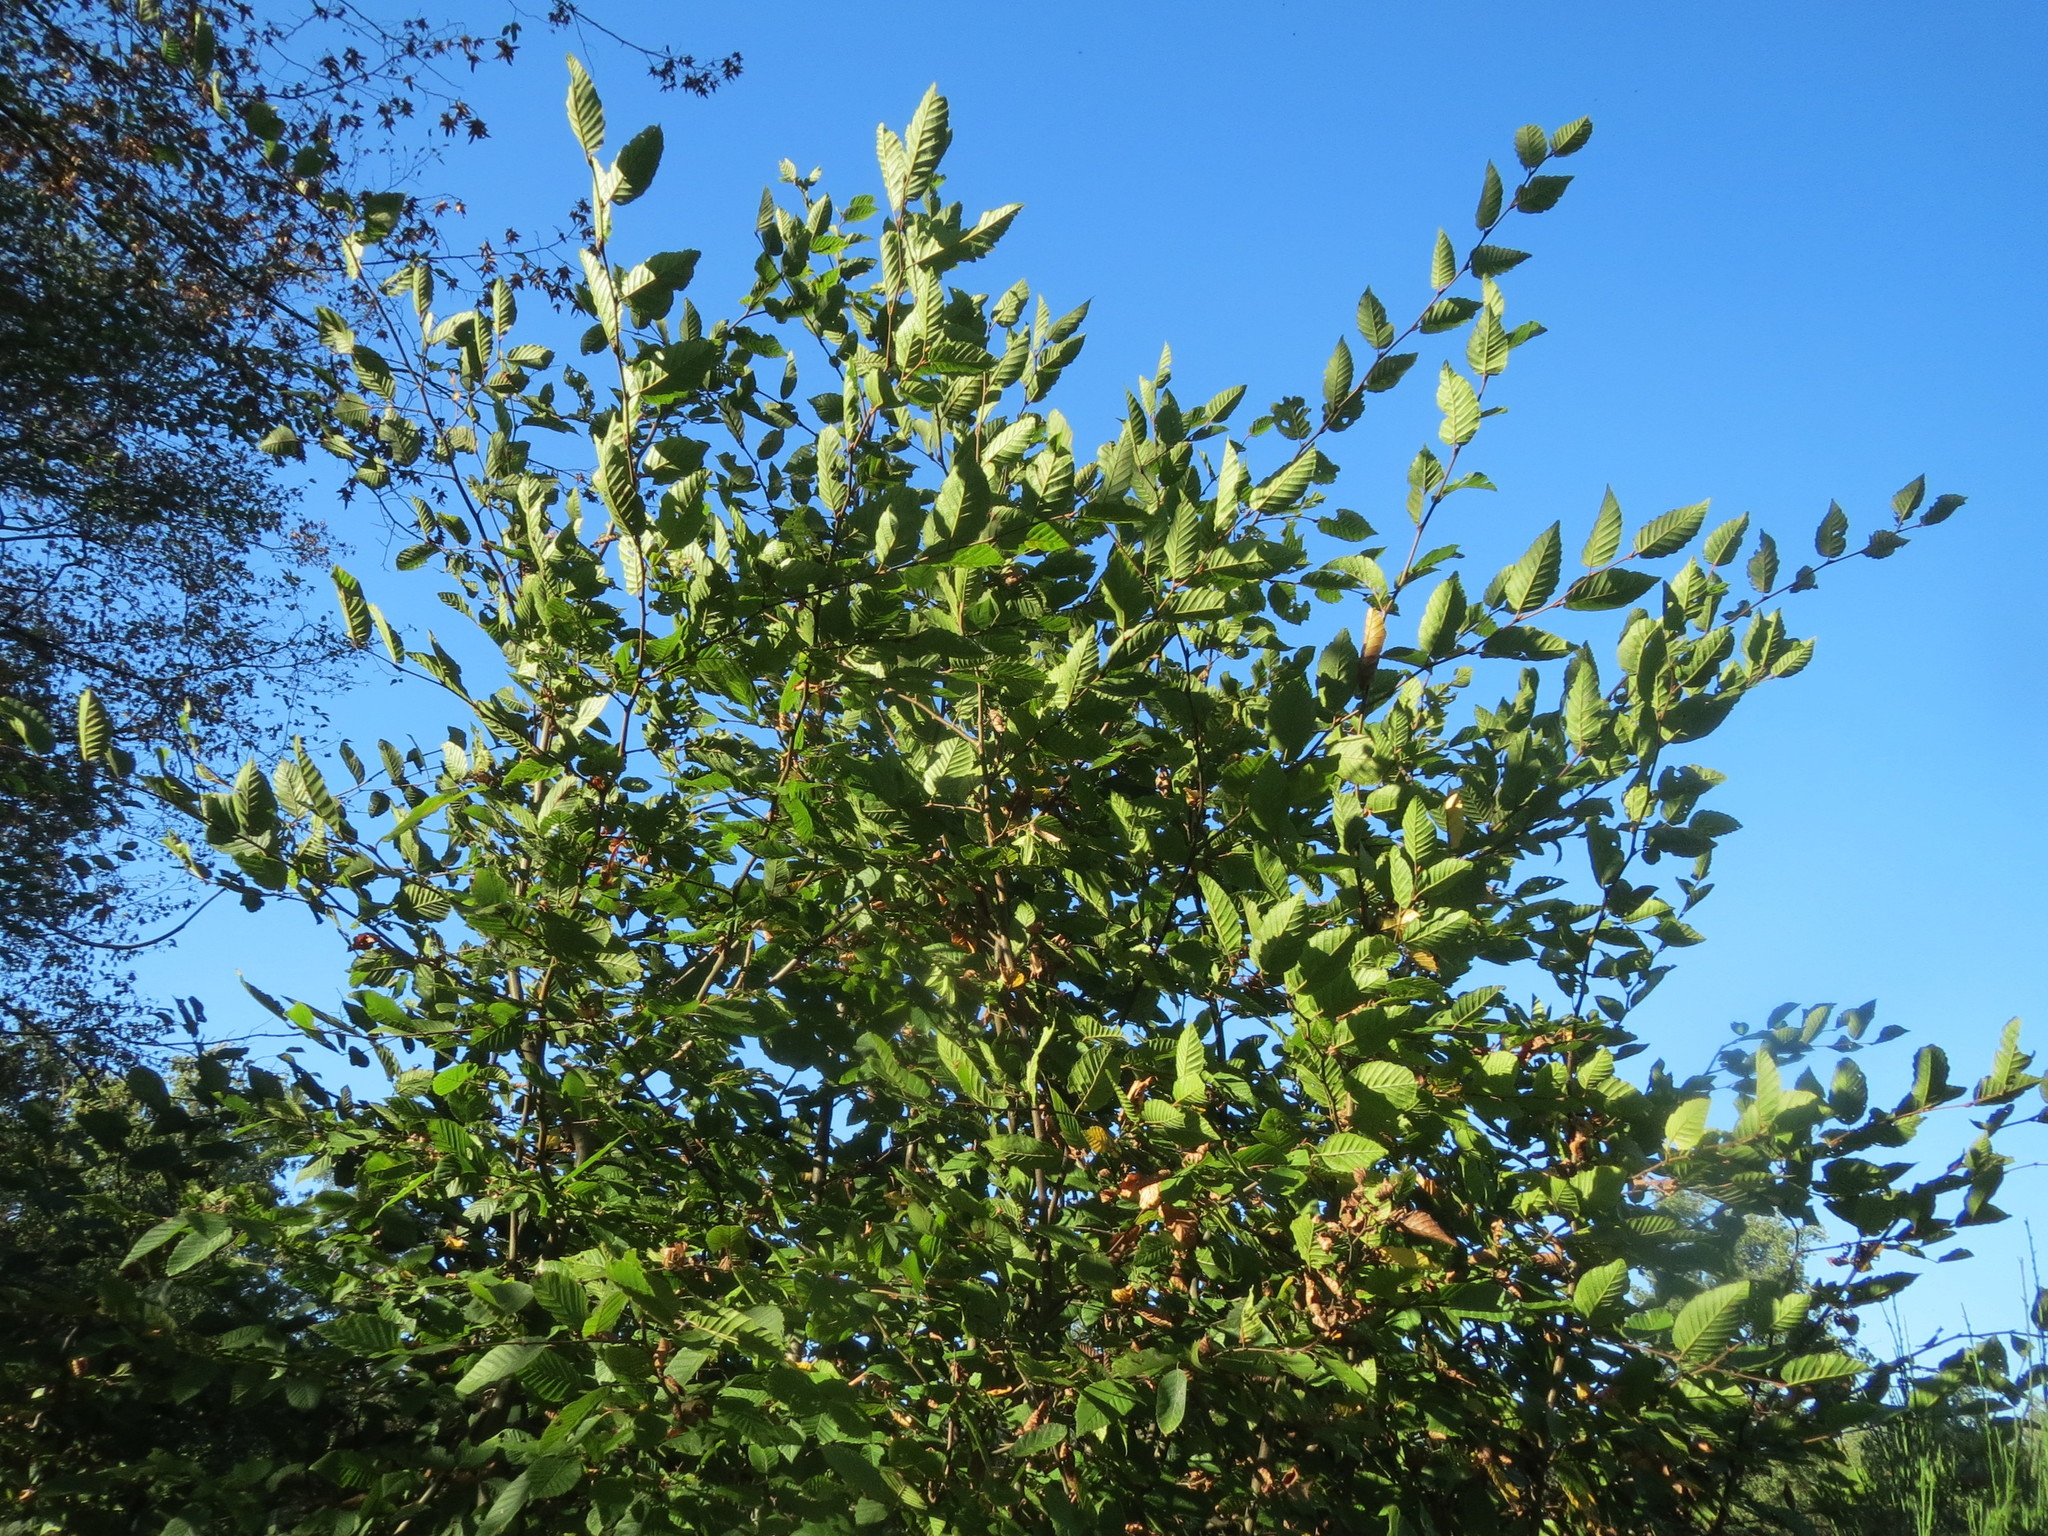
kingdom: Plantae
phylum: Tracheophyta
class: Magnoliopsida
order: Fagales
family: Betulaceae
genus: Carpinus
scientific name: Carpinus betulus
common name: Hornbeam
